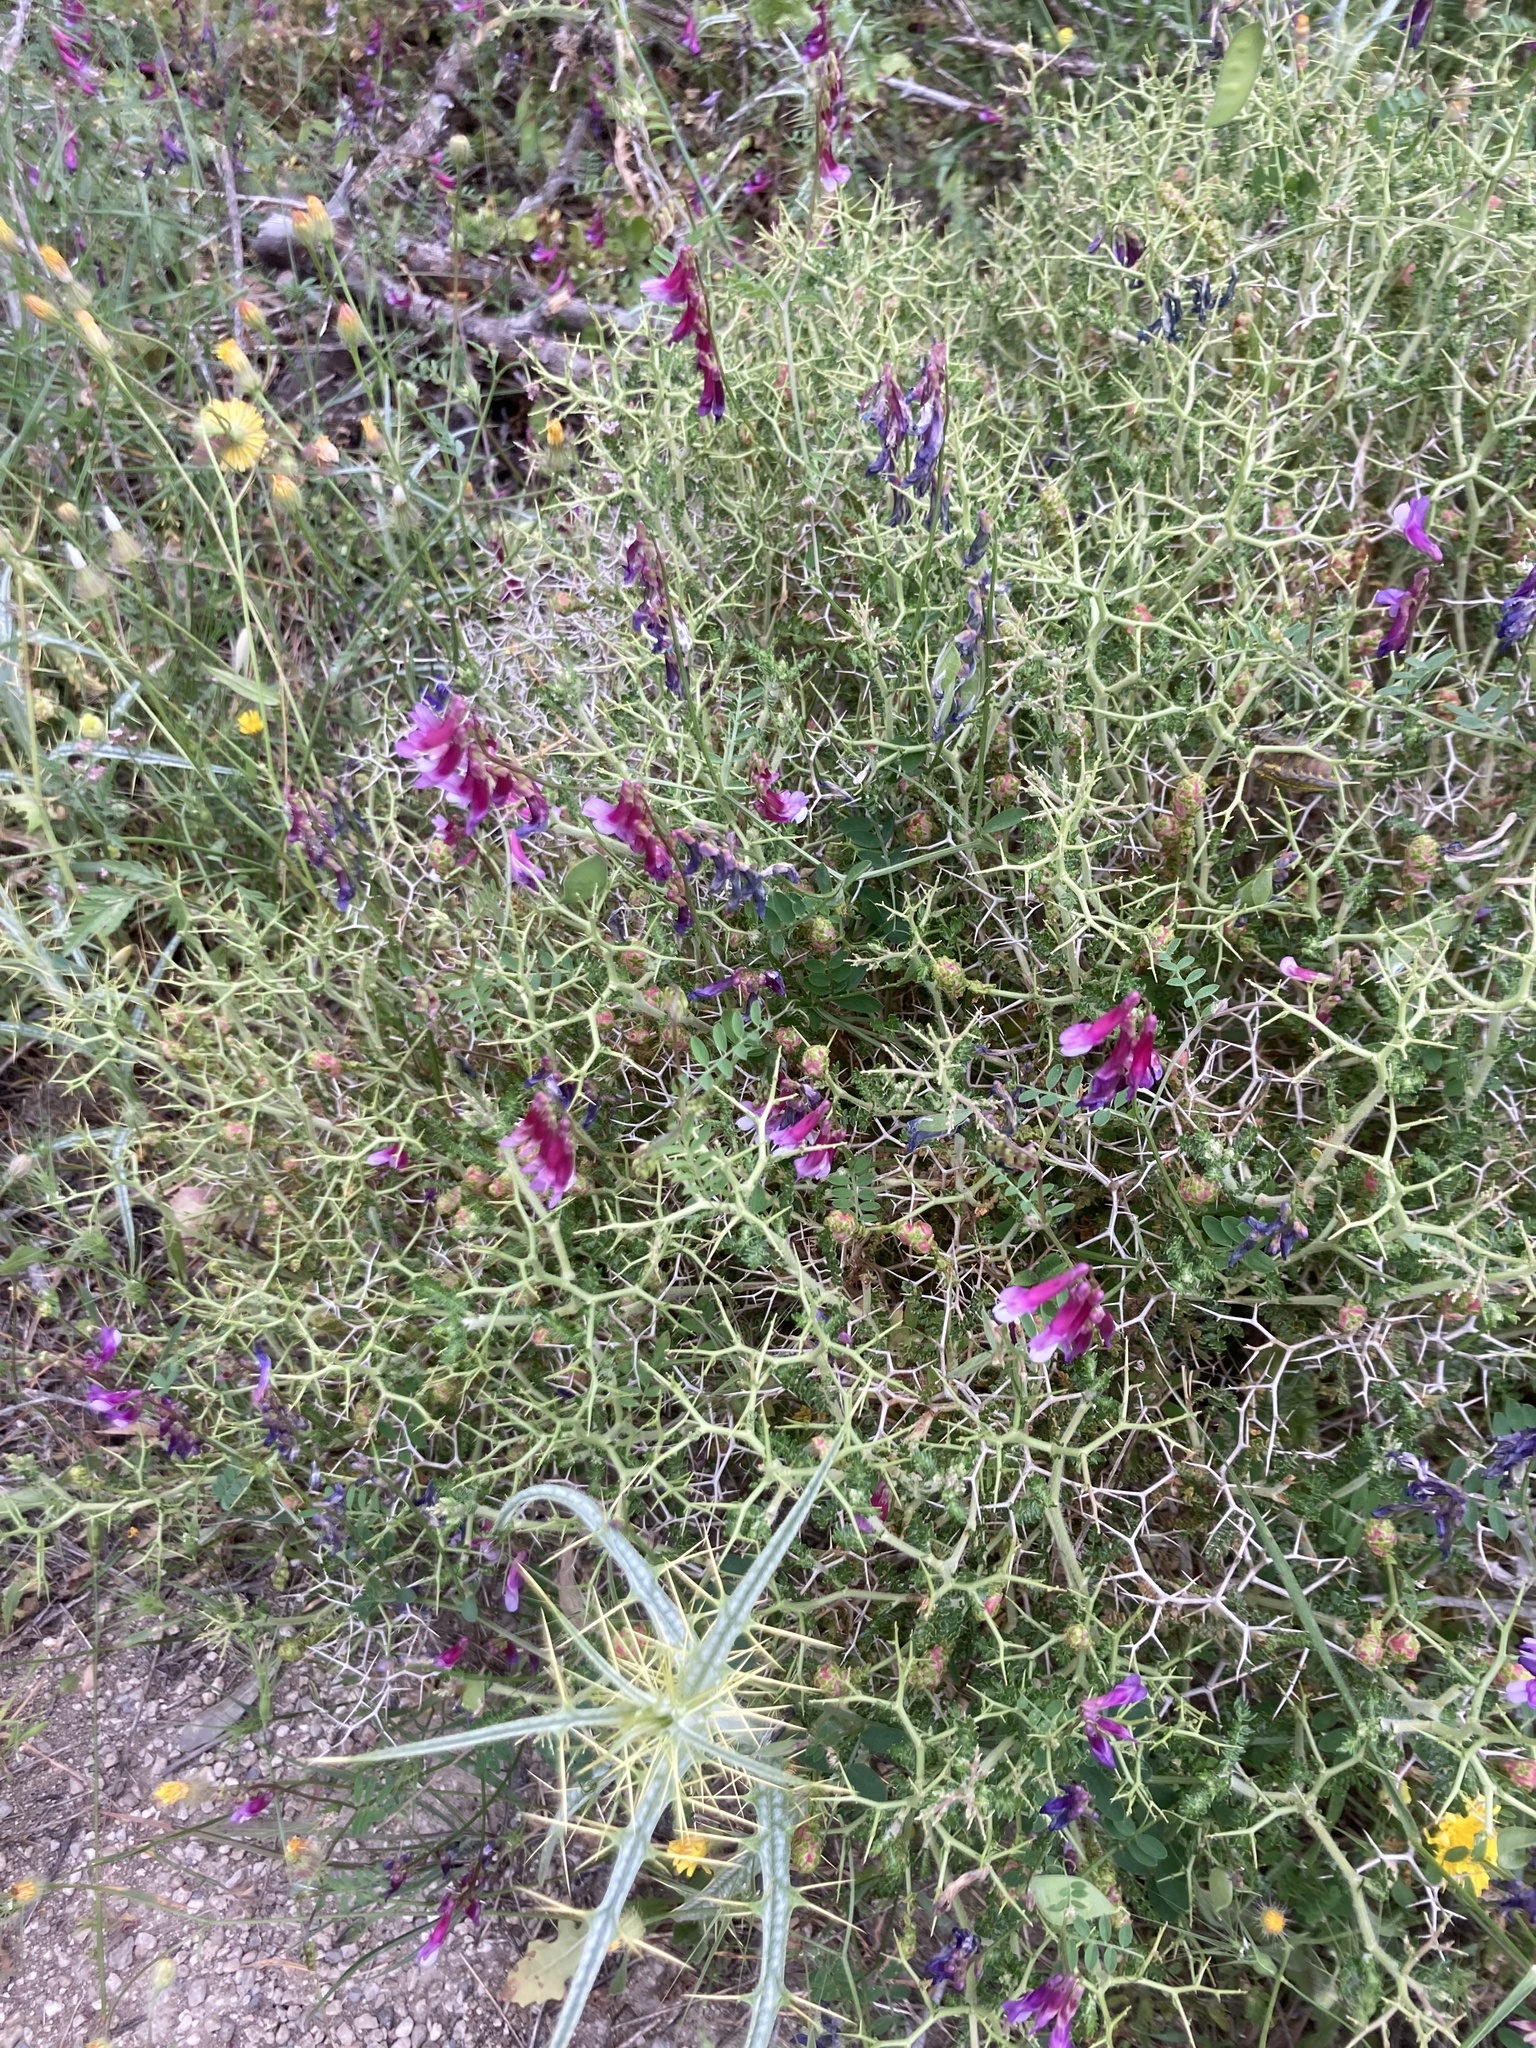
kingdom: Plantae
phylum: Tracheophyta
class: Magnoliopsida
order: Rosales
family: Rosaceae
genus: Sarcopoterium
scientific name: Sarcopoterium spinosum
